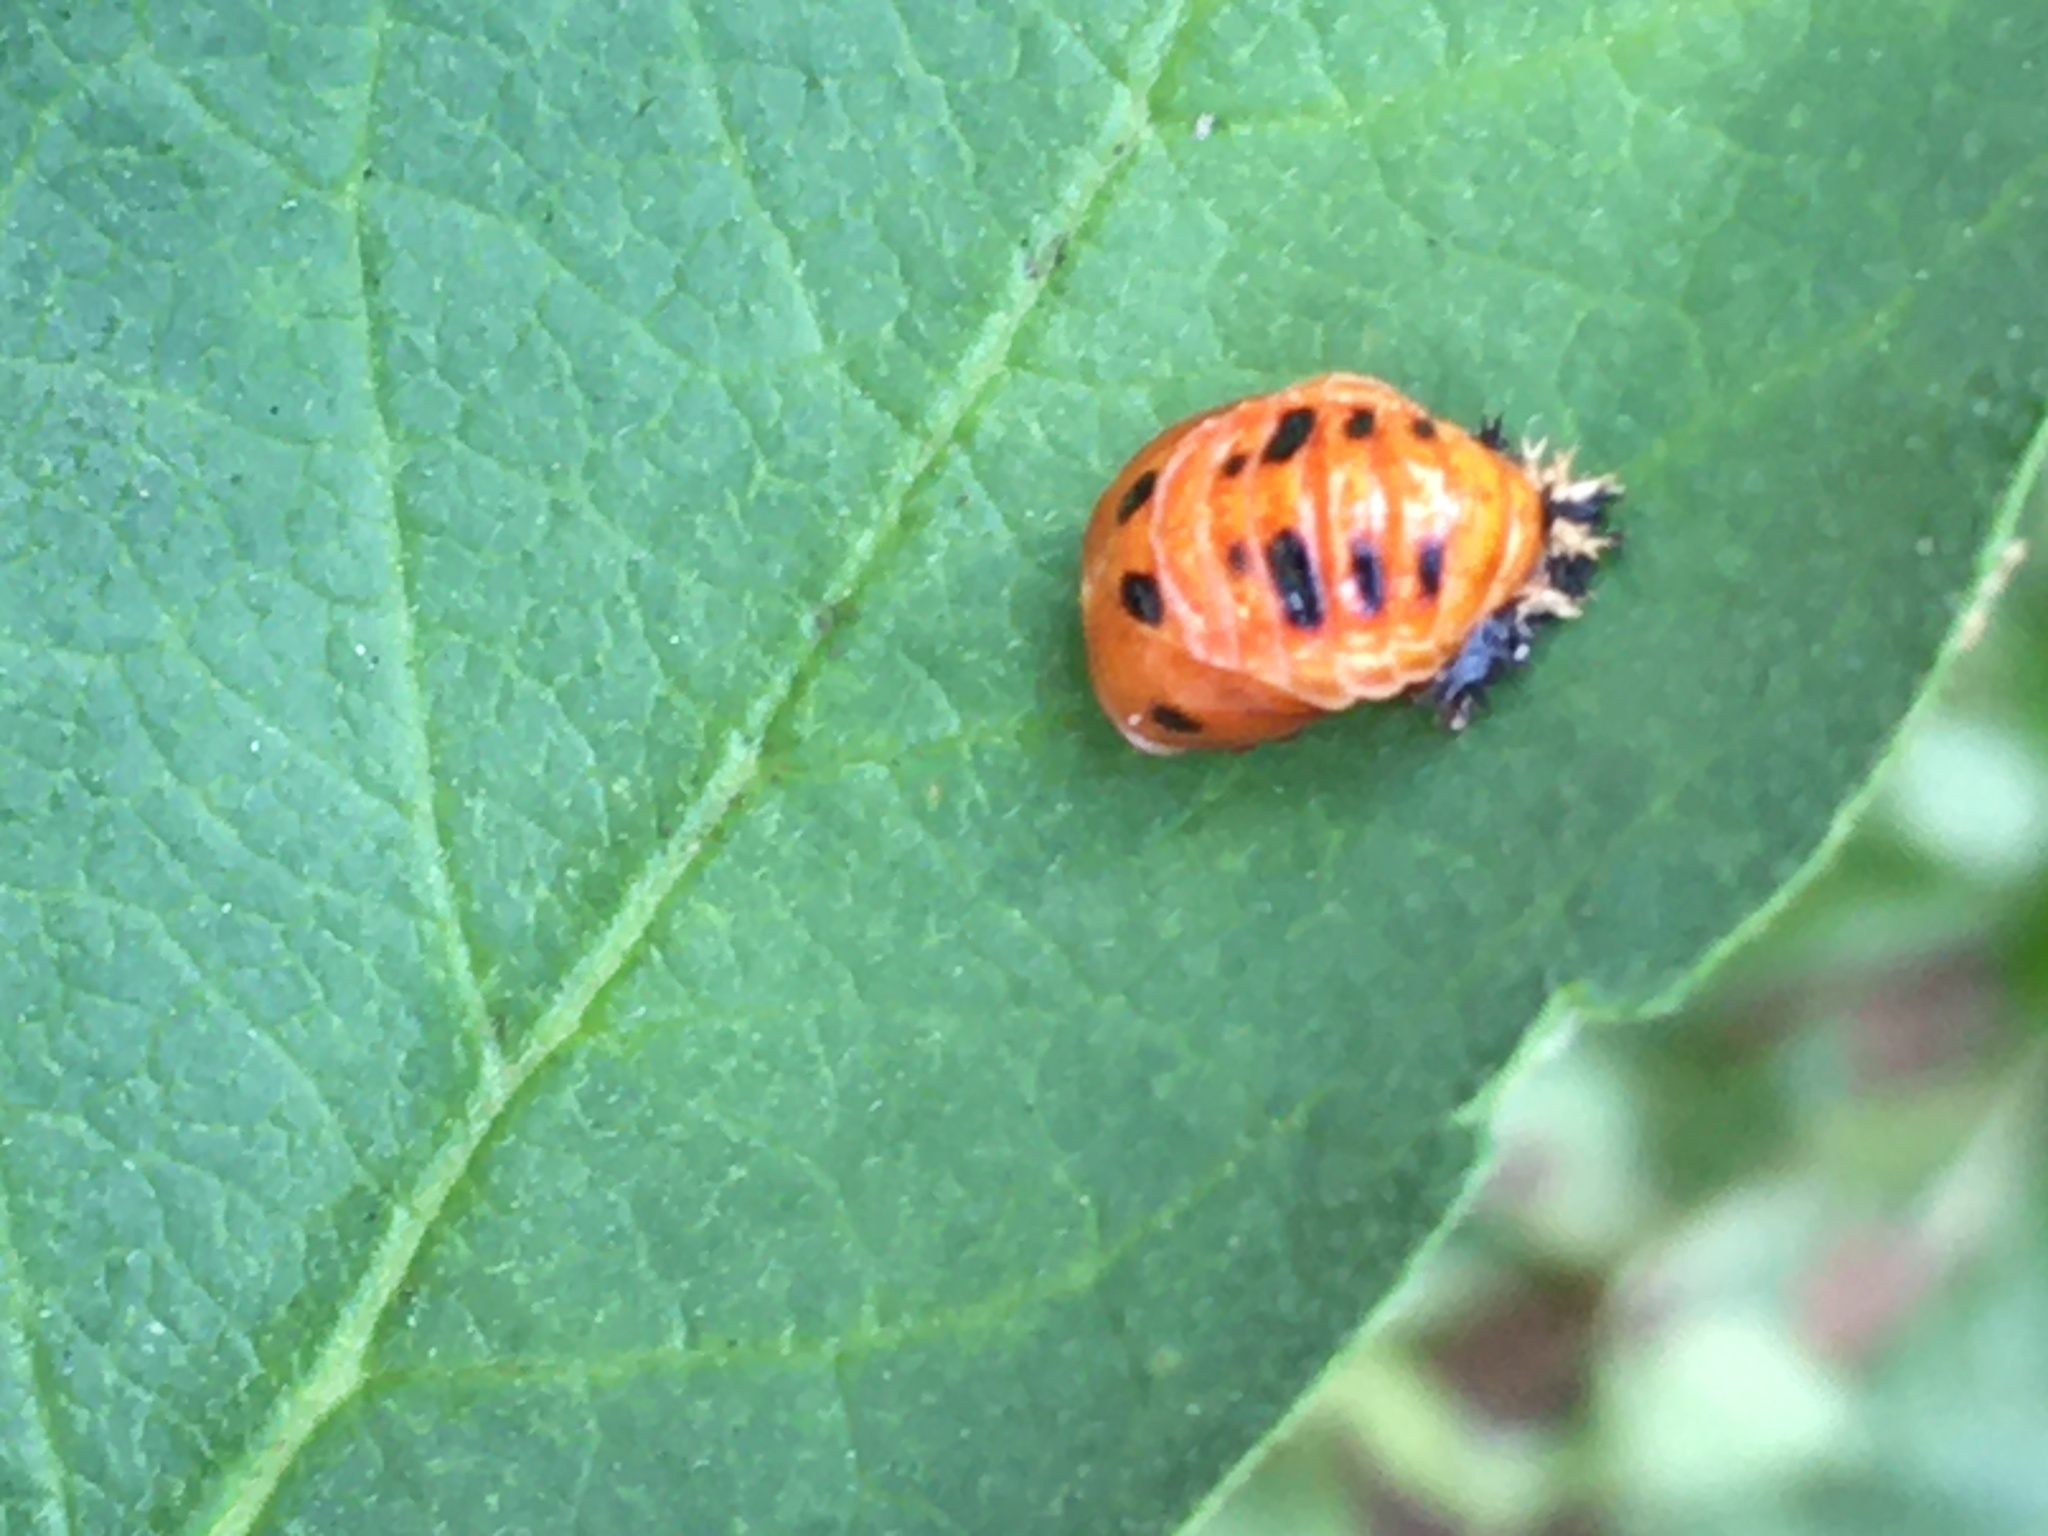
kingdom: Animalia
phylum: Arthropoda
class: Insecta
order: Coleoptera
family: Coccinellidae
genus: Harmonia
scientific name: Harmonia axyridis
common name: Harlequin ladybird
